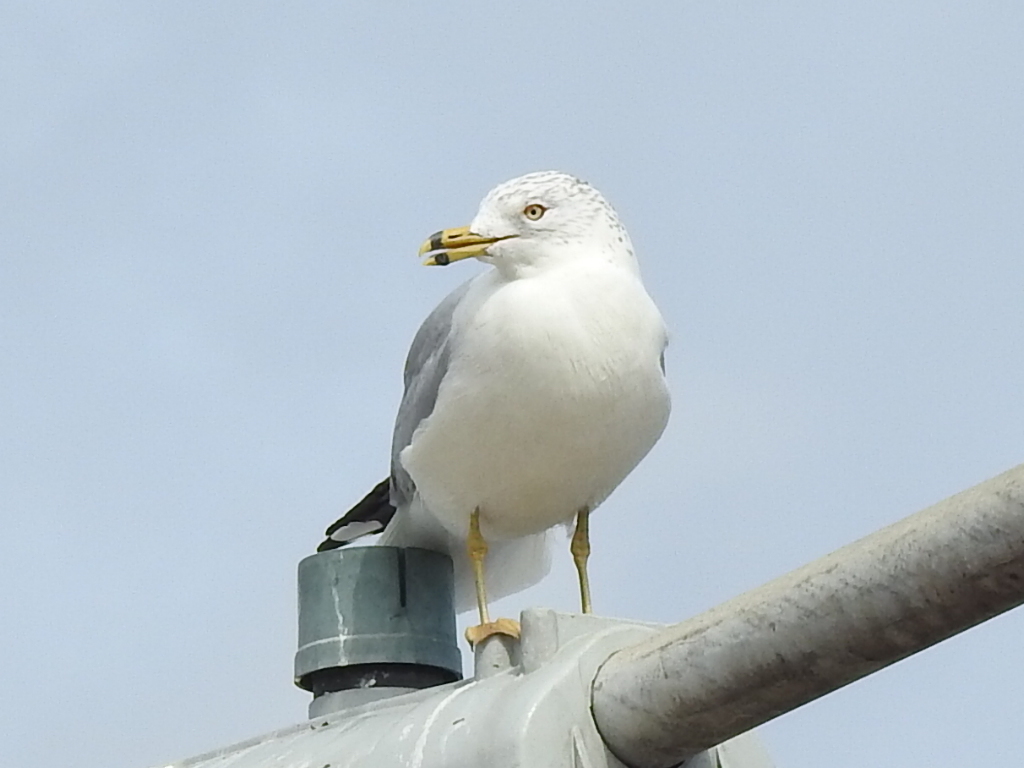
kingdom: Animalia
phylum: Chordata
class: Aves
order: Charadriiformes
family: Laridae
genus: Larus
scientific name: Larus delawarensis
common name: Ring-billed gull
